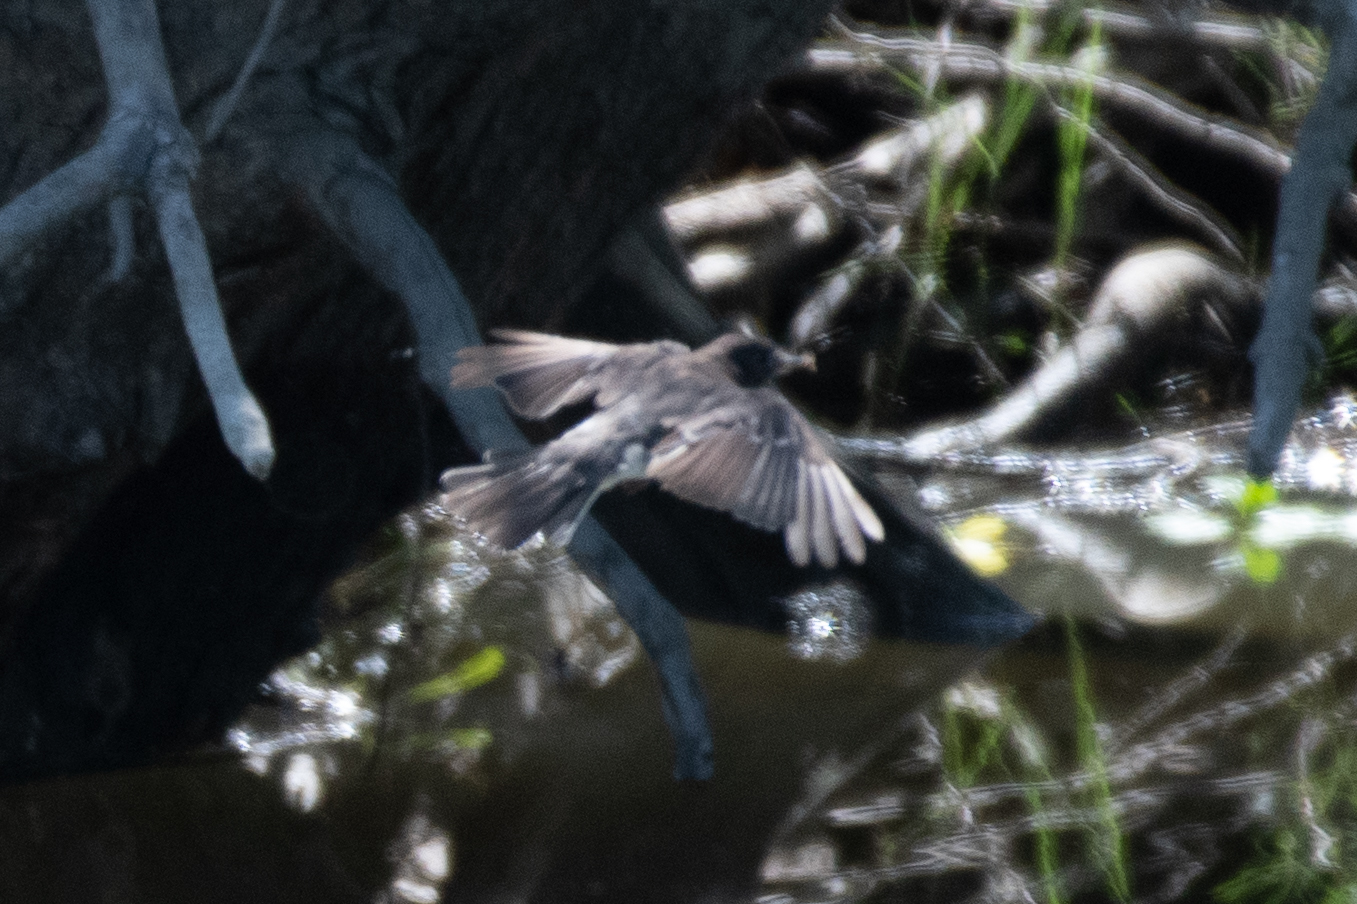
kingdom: Animalia
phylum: Chordata
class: Aves
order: Passeriformes
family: Tyrannidae
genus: Sayornis
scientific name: Sayornis nigricans
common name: Black phoebe
